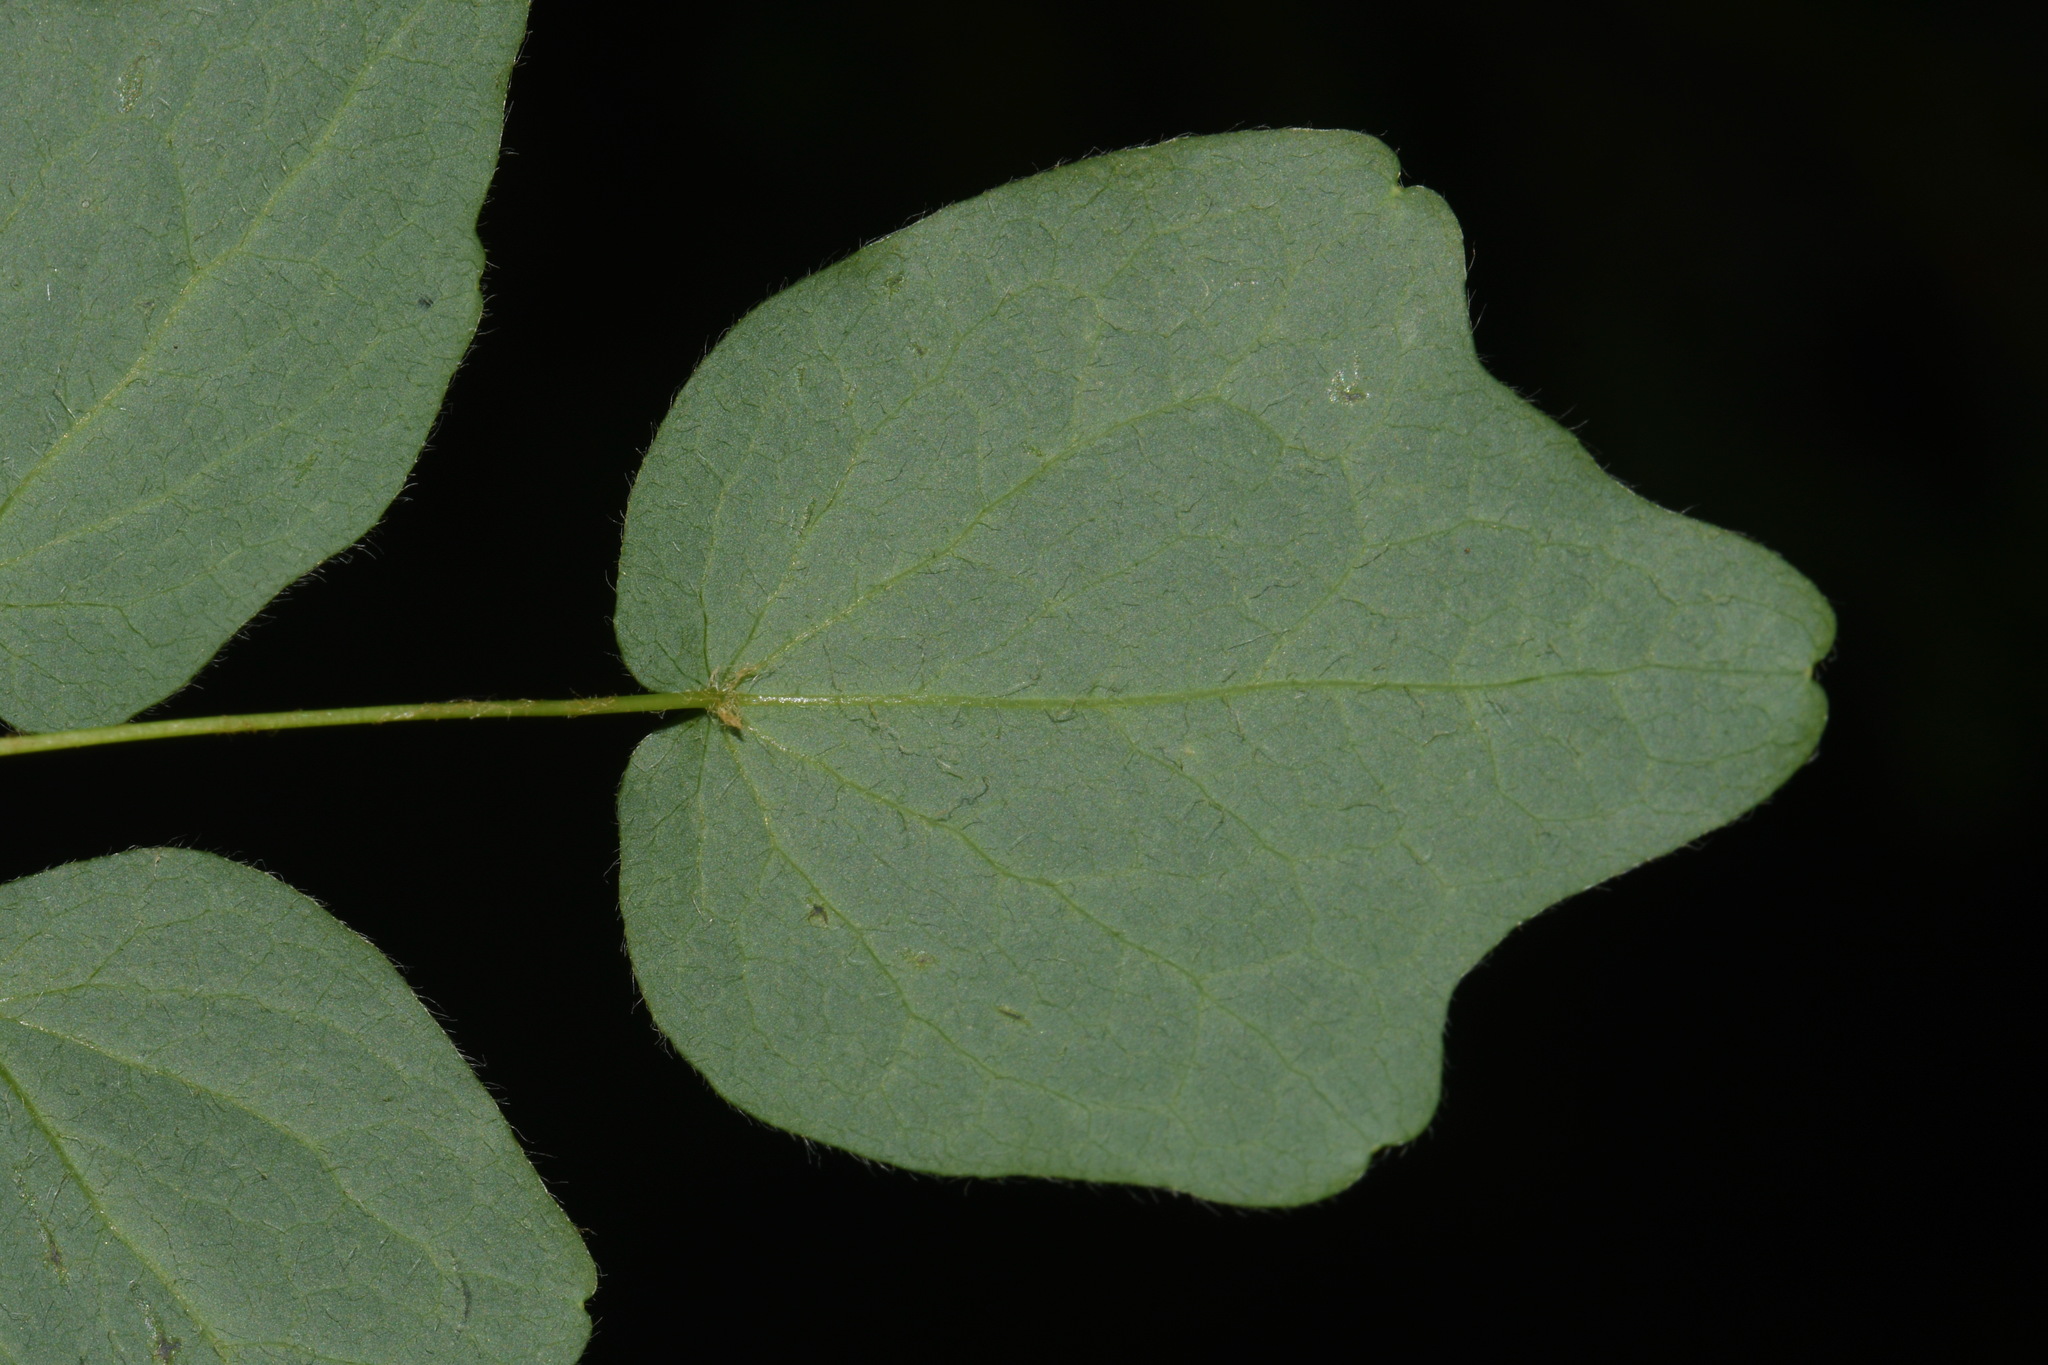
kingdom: Plantae
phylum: Tracheophyta
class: Magnoliopsida
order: Ranunculales
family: Berberidaceae
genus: Vancouveria
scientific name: Vancouveria hexandra
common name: Northern inside-out-flower
